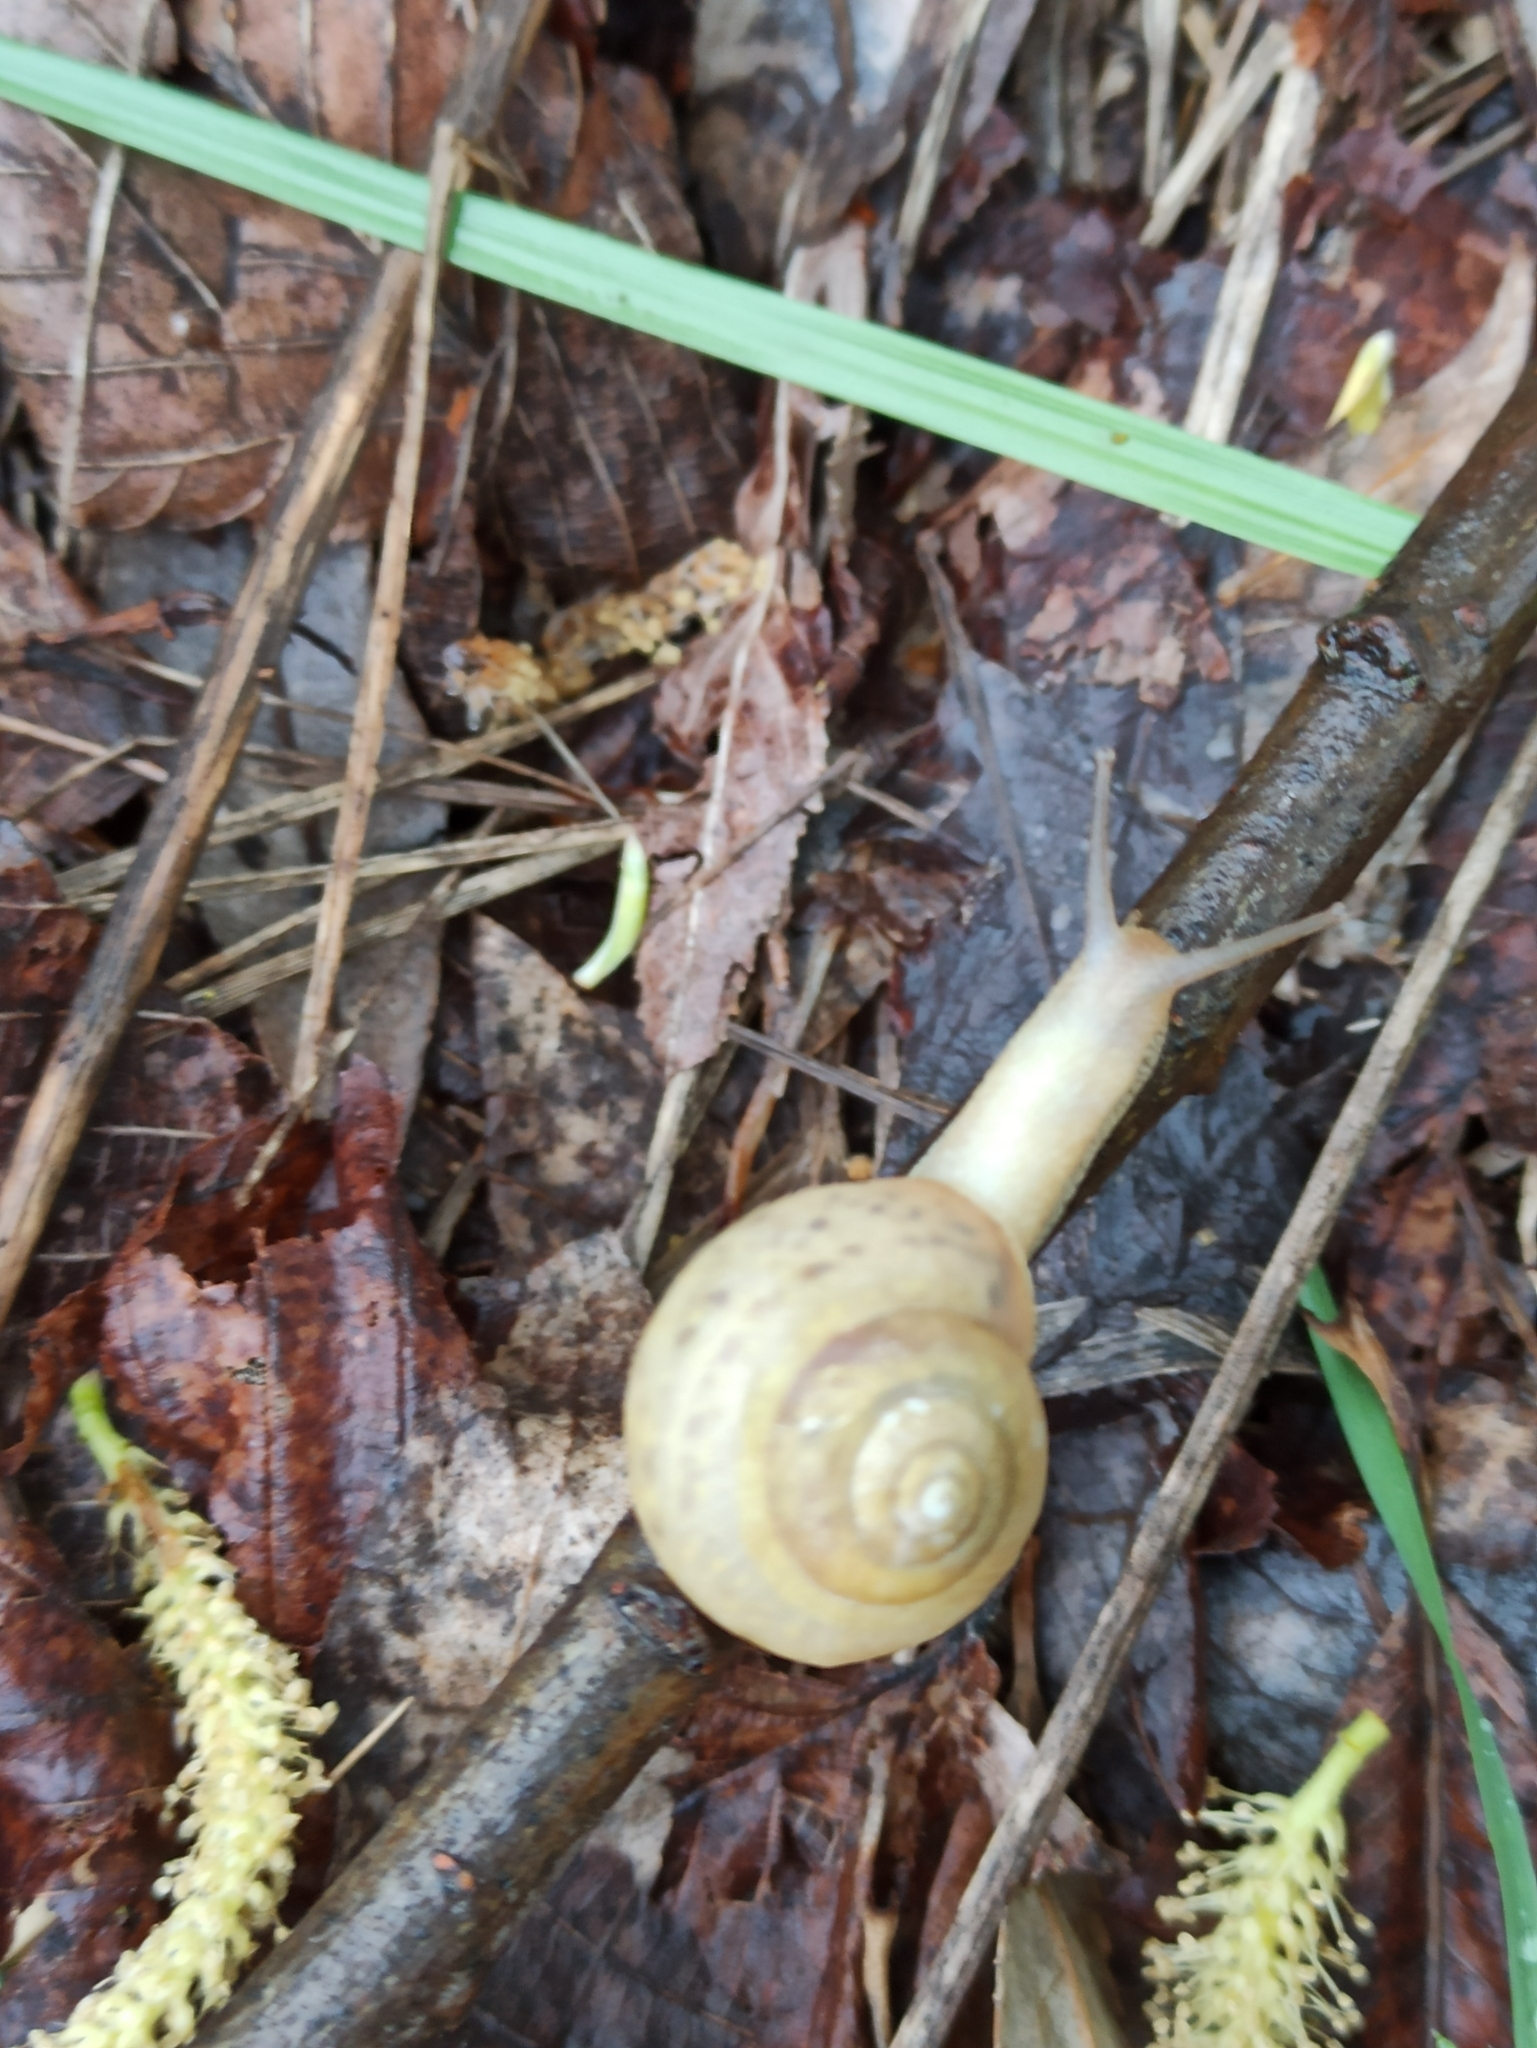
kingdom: Animalia
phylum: Mollusca
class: Gastropoda
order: Stylommatophora
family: Camaenidae
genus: Fruticicola
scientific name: Fruticicola fruticum
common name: Bush snail
